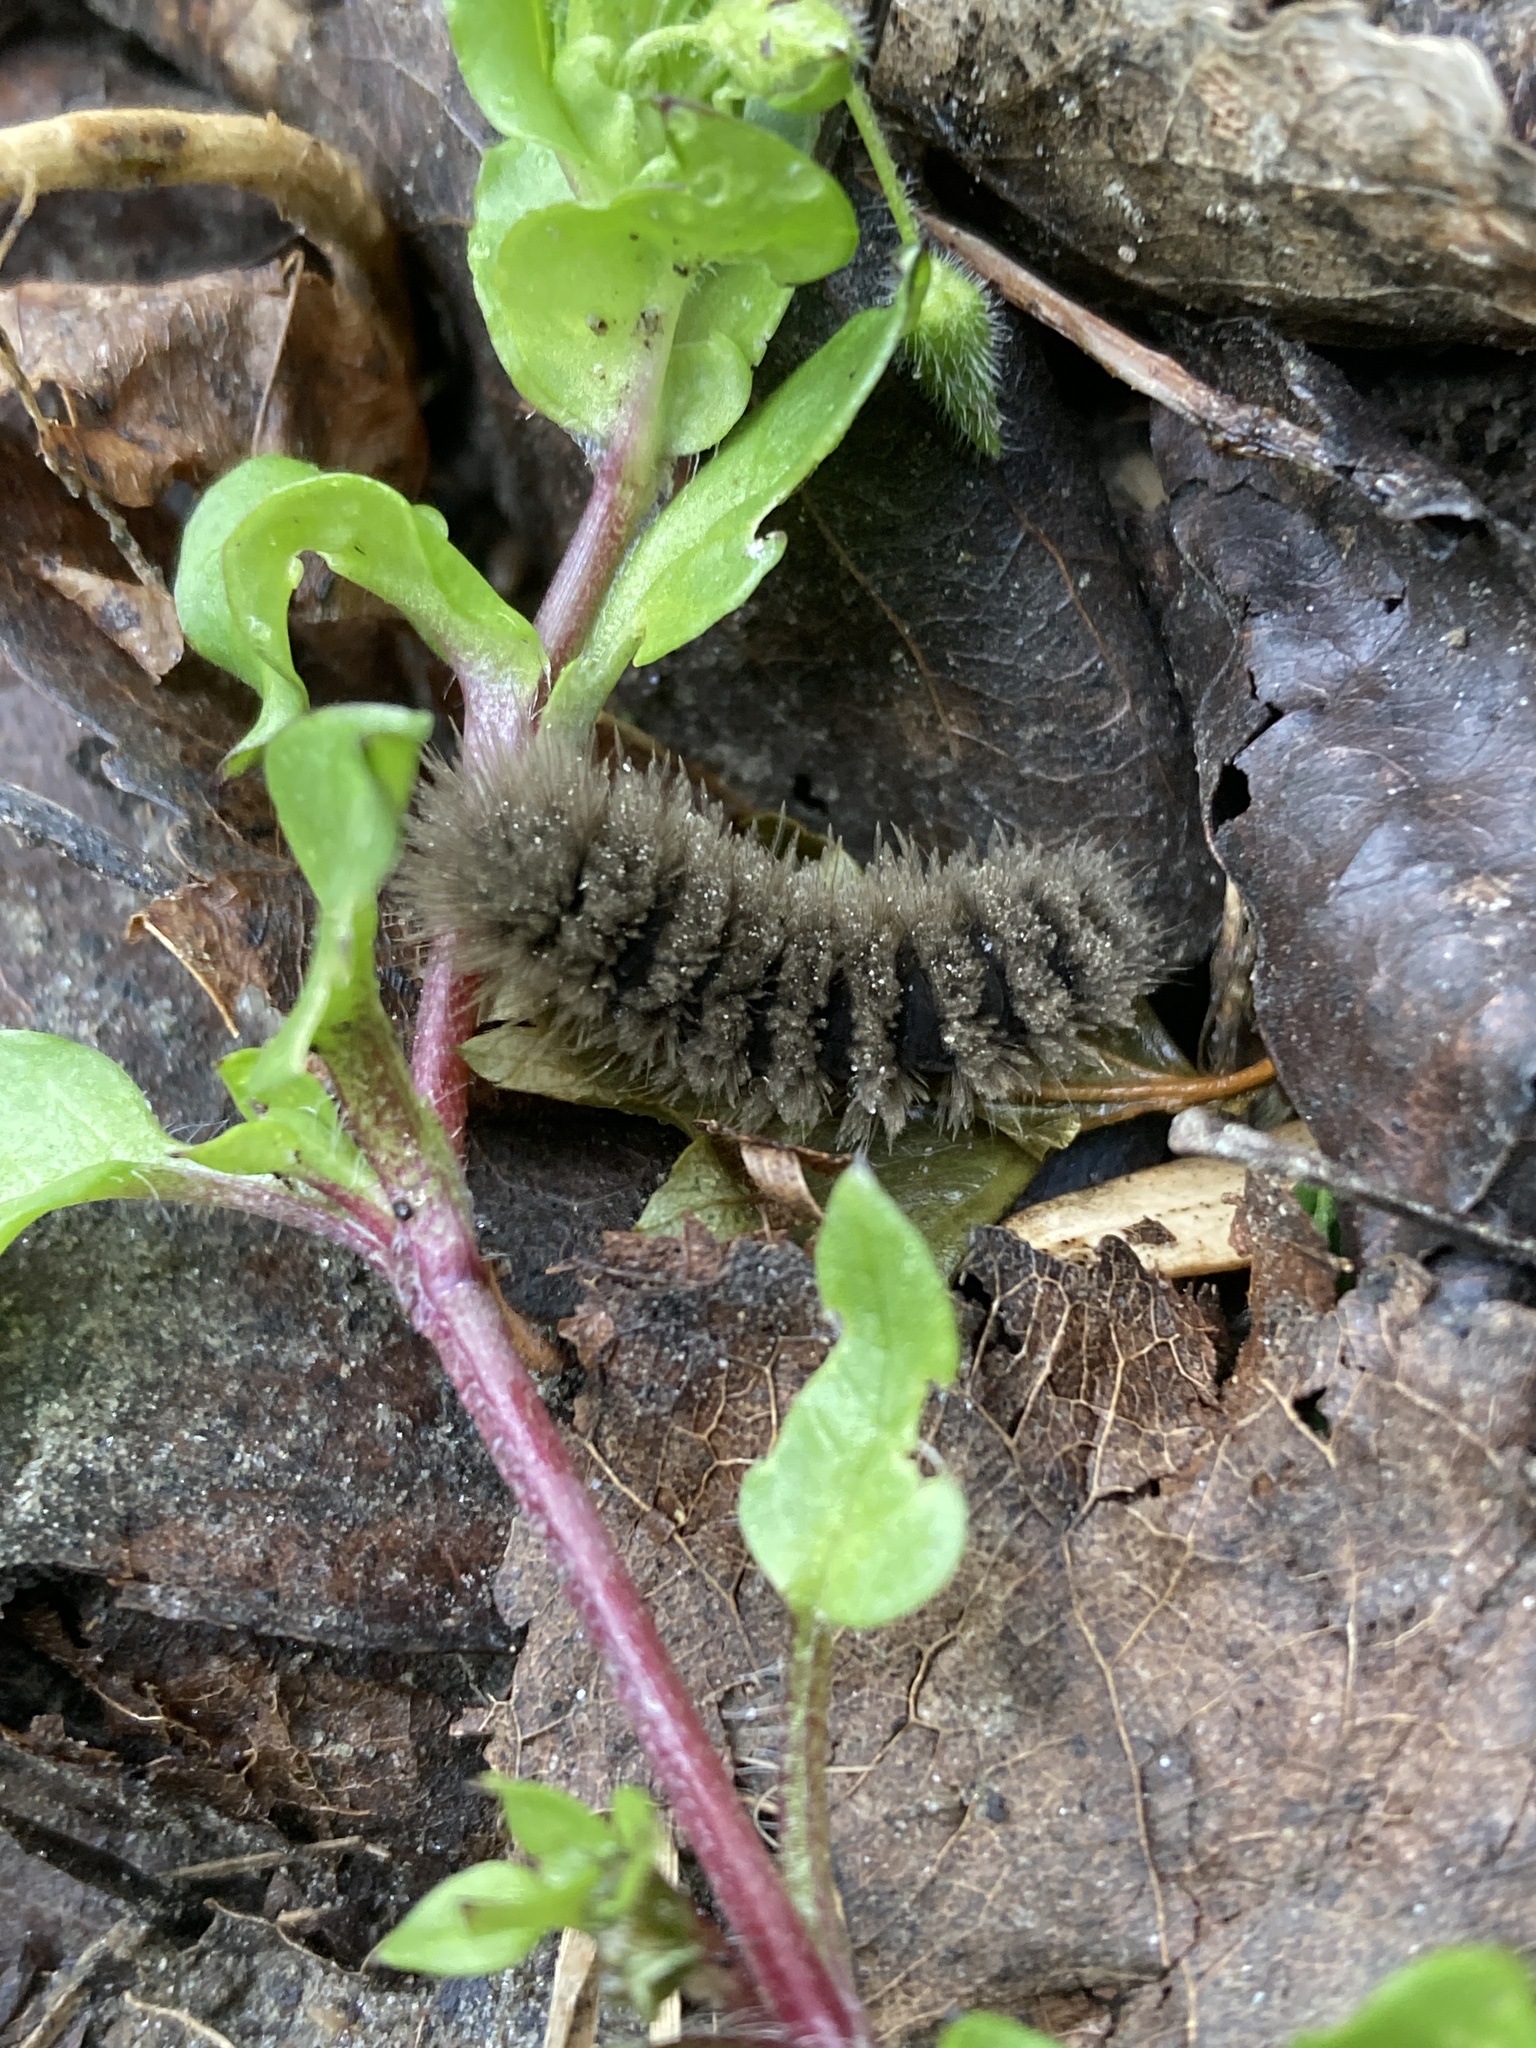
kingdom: Animalia
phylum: Arthropoda
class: Insecta
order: Lepidoptera
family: Erebidae
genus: Amata
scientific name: Amata phegea
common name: Nine-spotted
